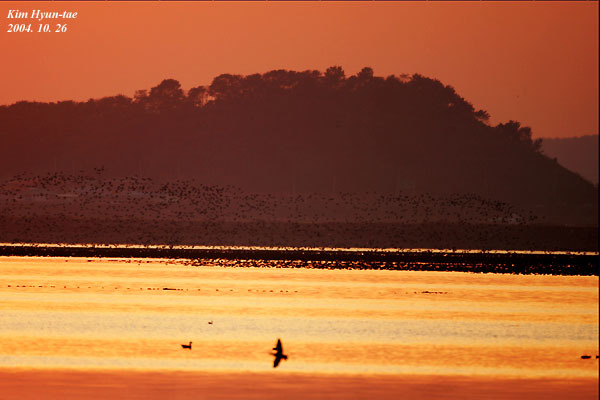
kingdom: Animalia
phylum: Chordata
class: Aves
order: Anseriformes
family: Anatidae
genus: Sibirionetta
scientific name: Sibirionetta formosa
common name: Baikal teal
